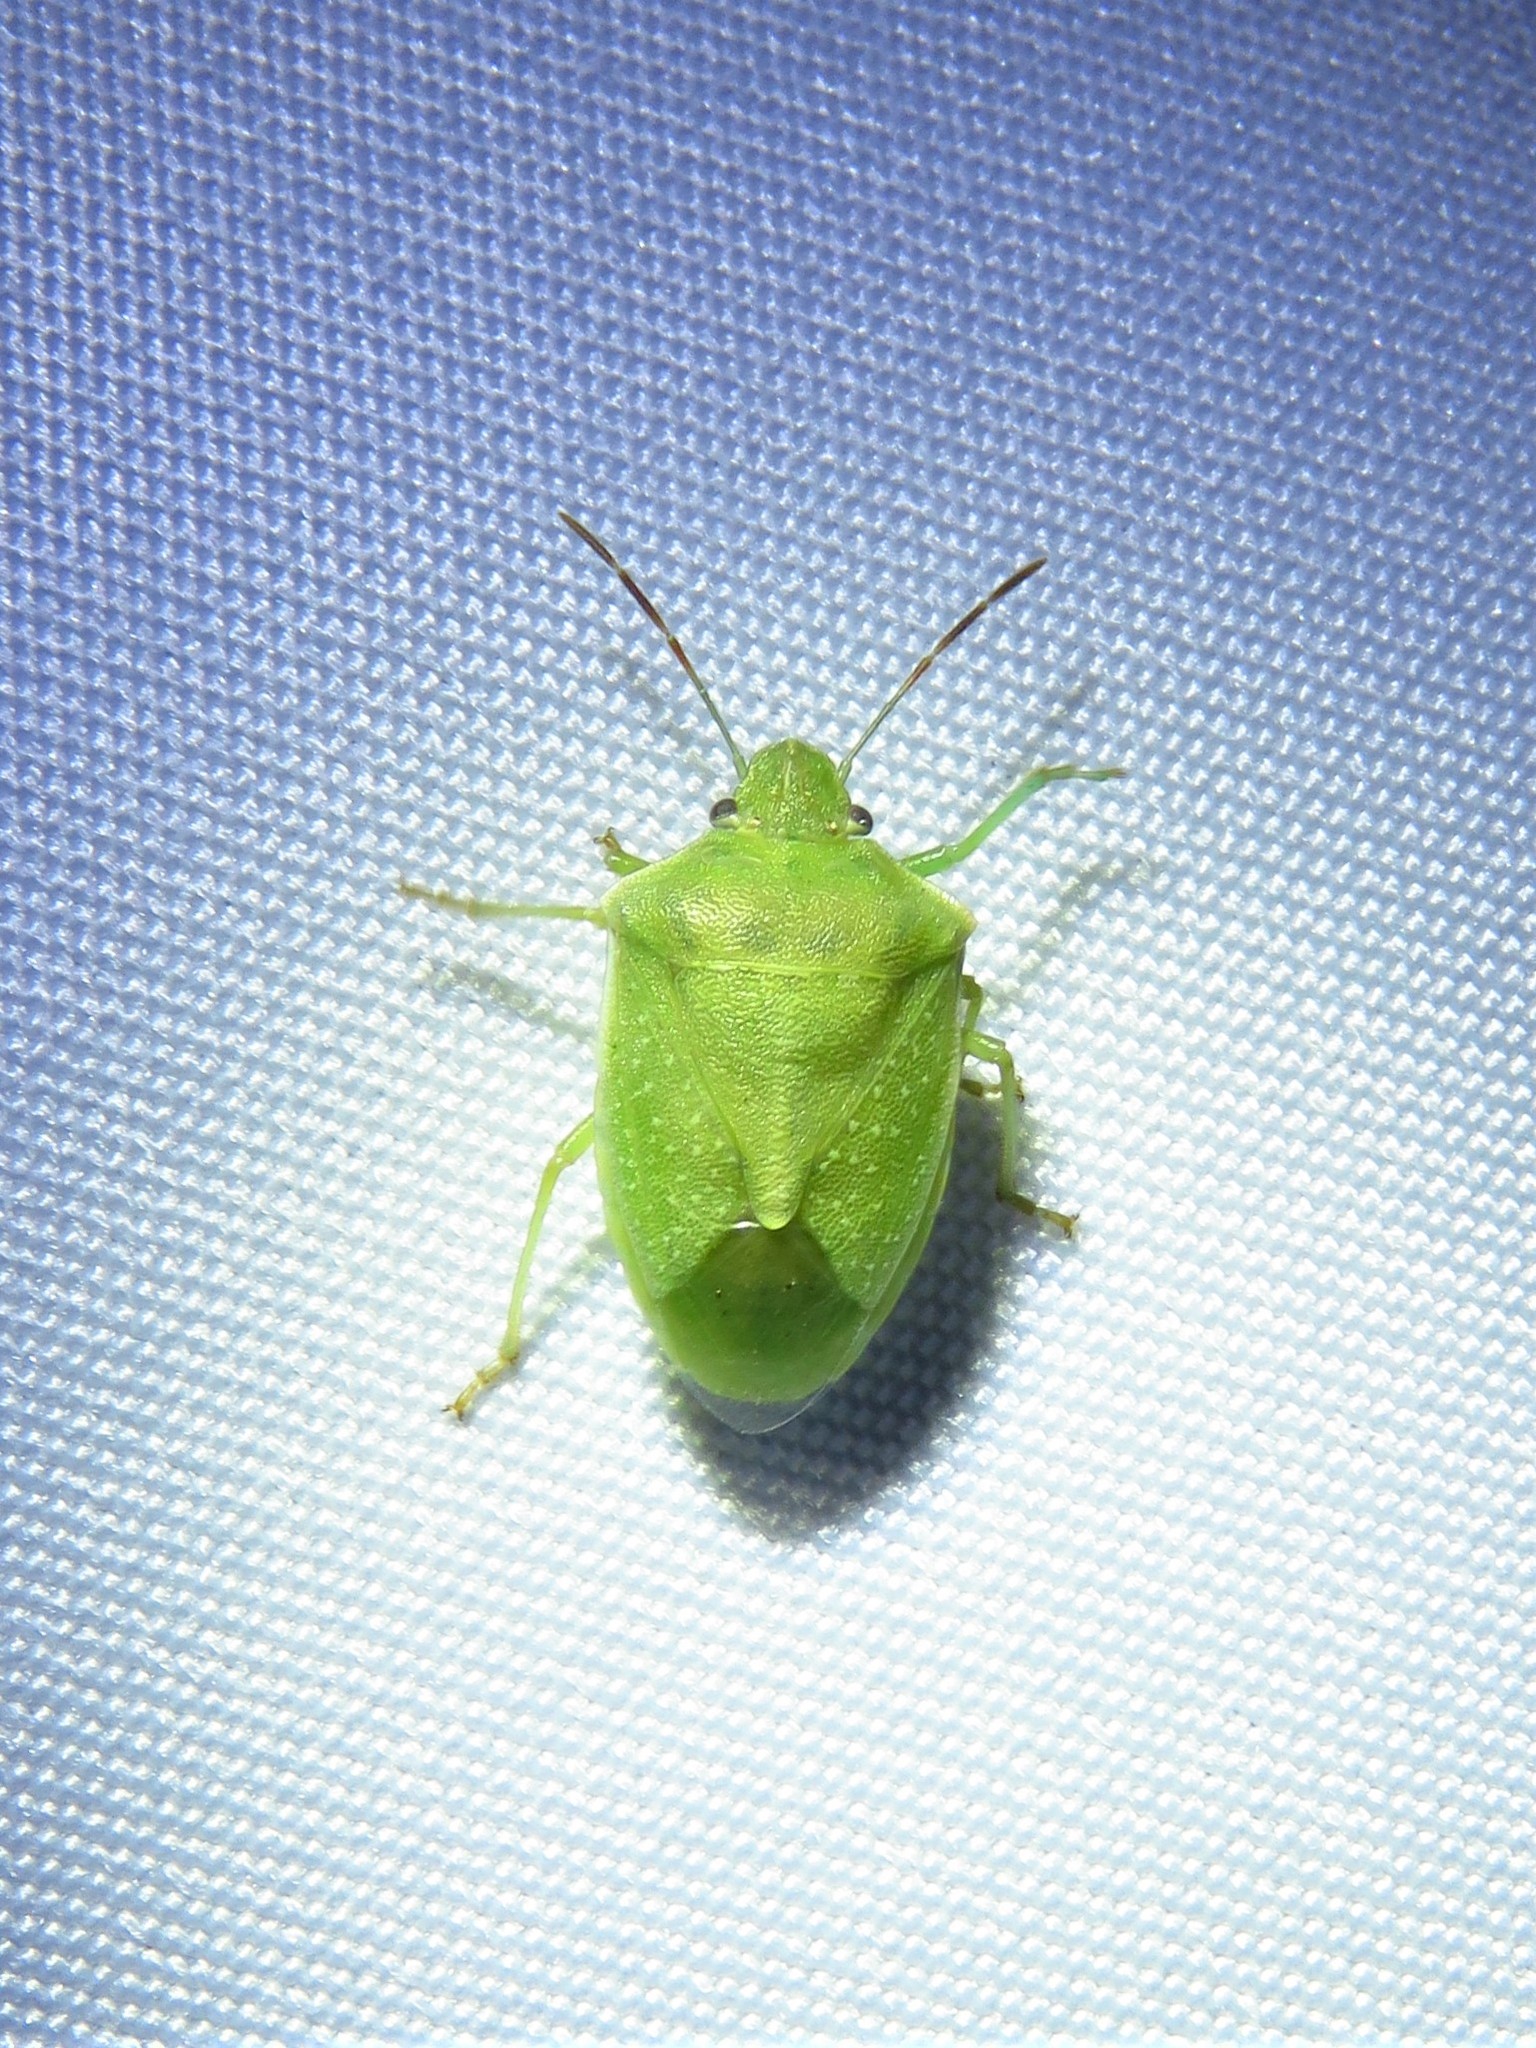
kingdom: Animalia
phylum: Arthropoda
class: Insecta
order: Hemiptera
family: Pentatomidae
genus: Thyanta
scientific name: Thyanta custator
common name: Stink bug
